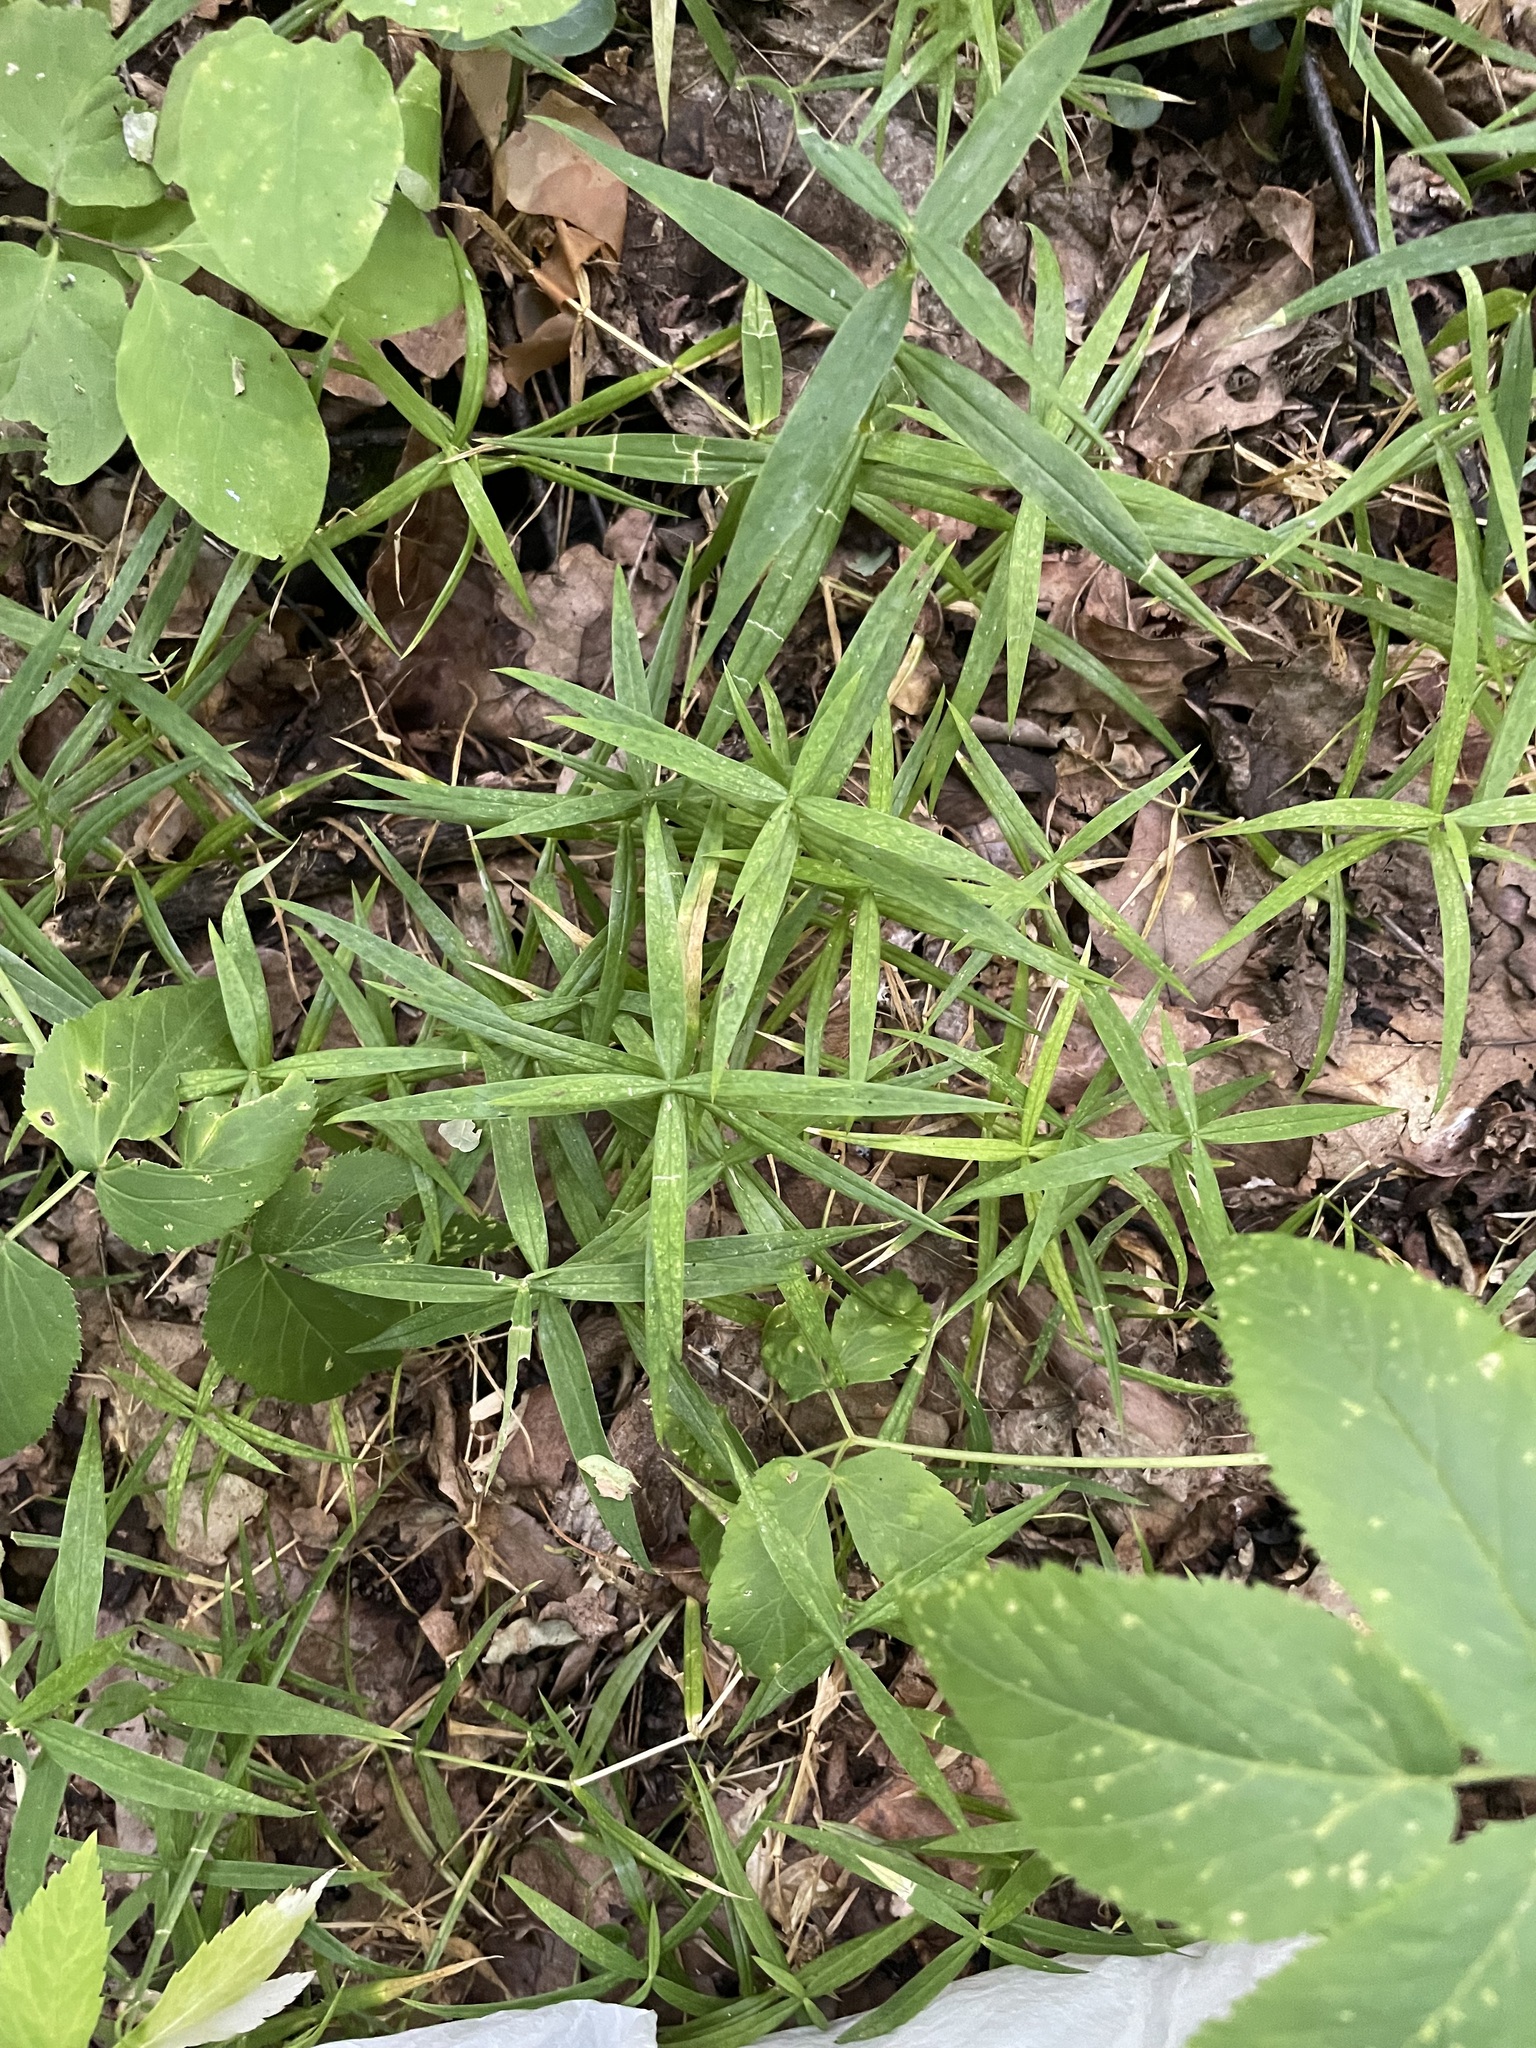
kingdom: Plantae
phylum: Tracheophyta
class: Magnoliopsida
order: Caryophyllales
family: Caryophyllaceae
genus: Rabelera
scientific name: Rabelera holostea
